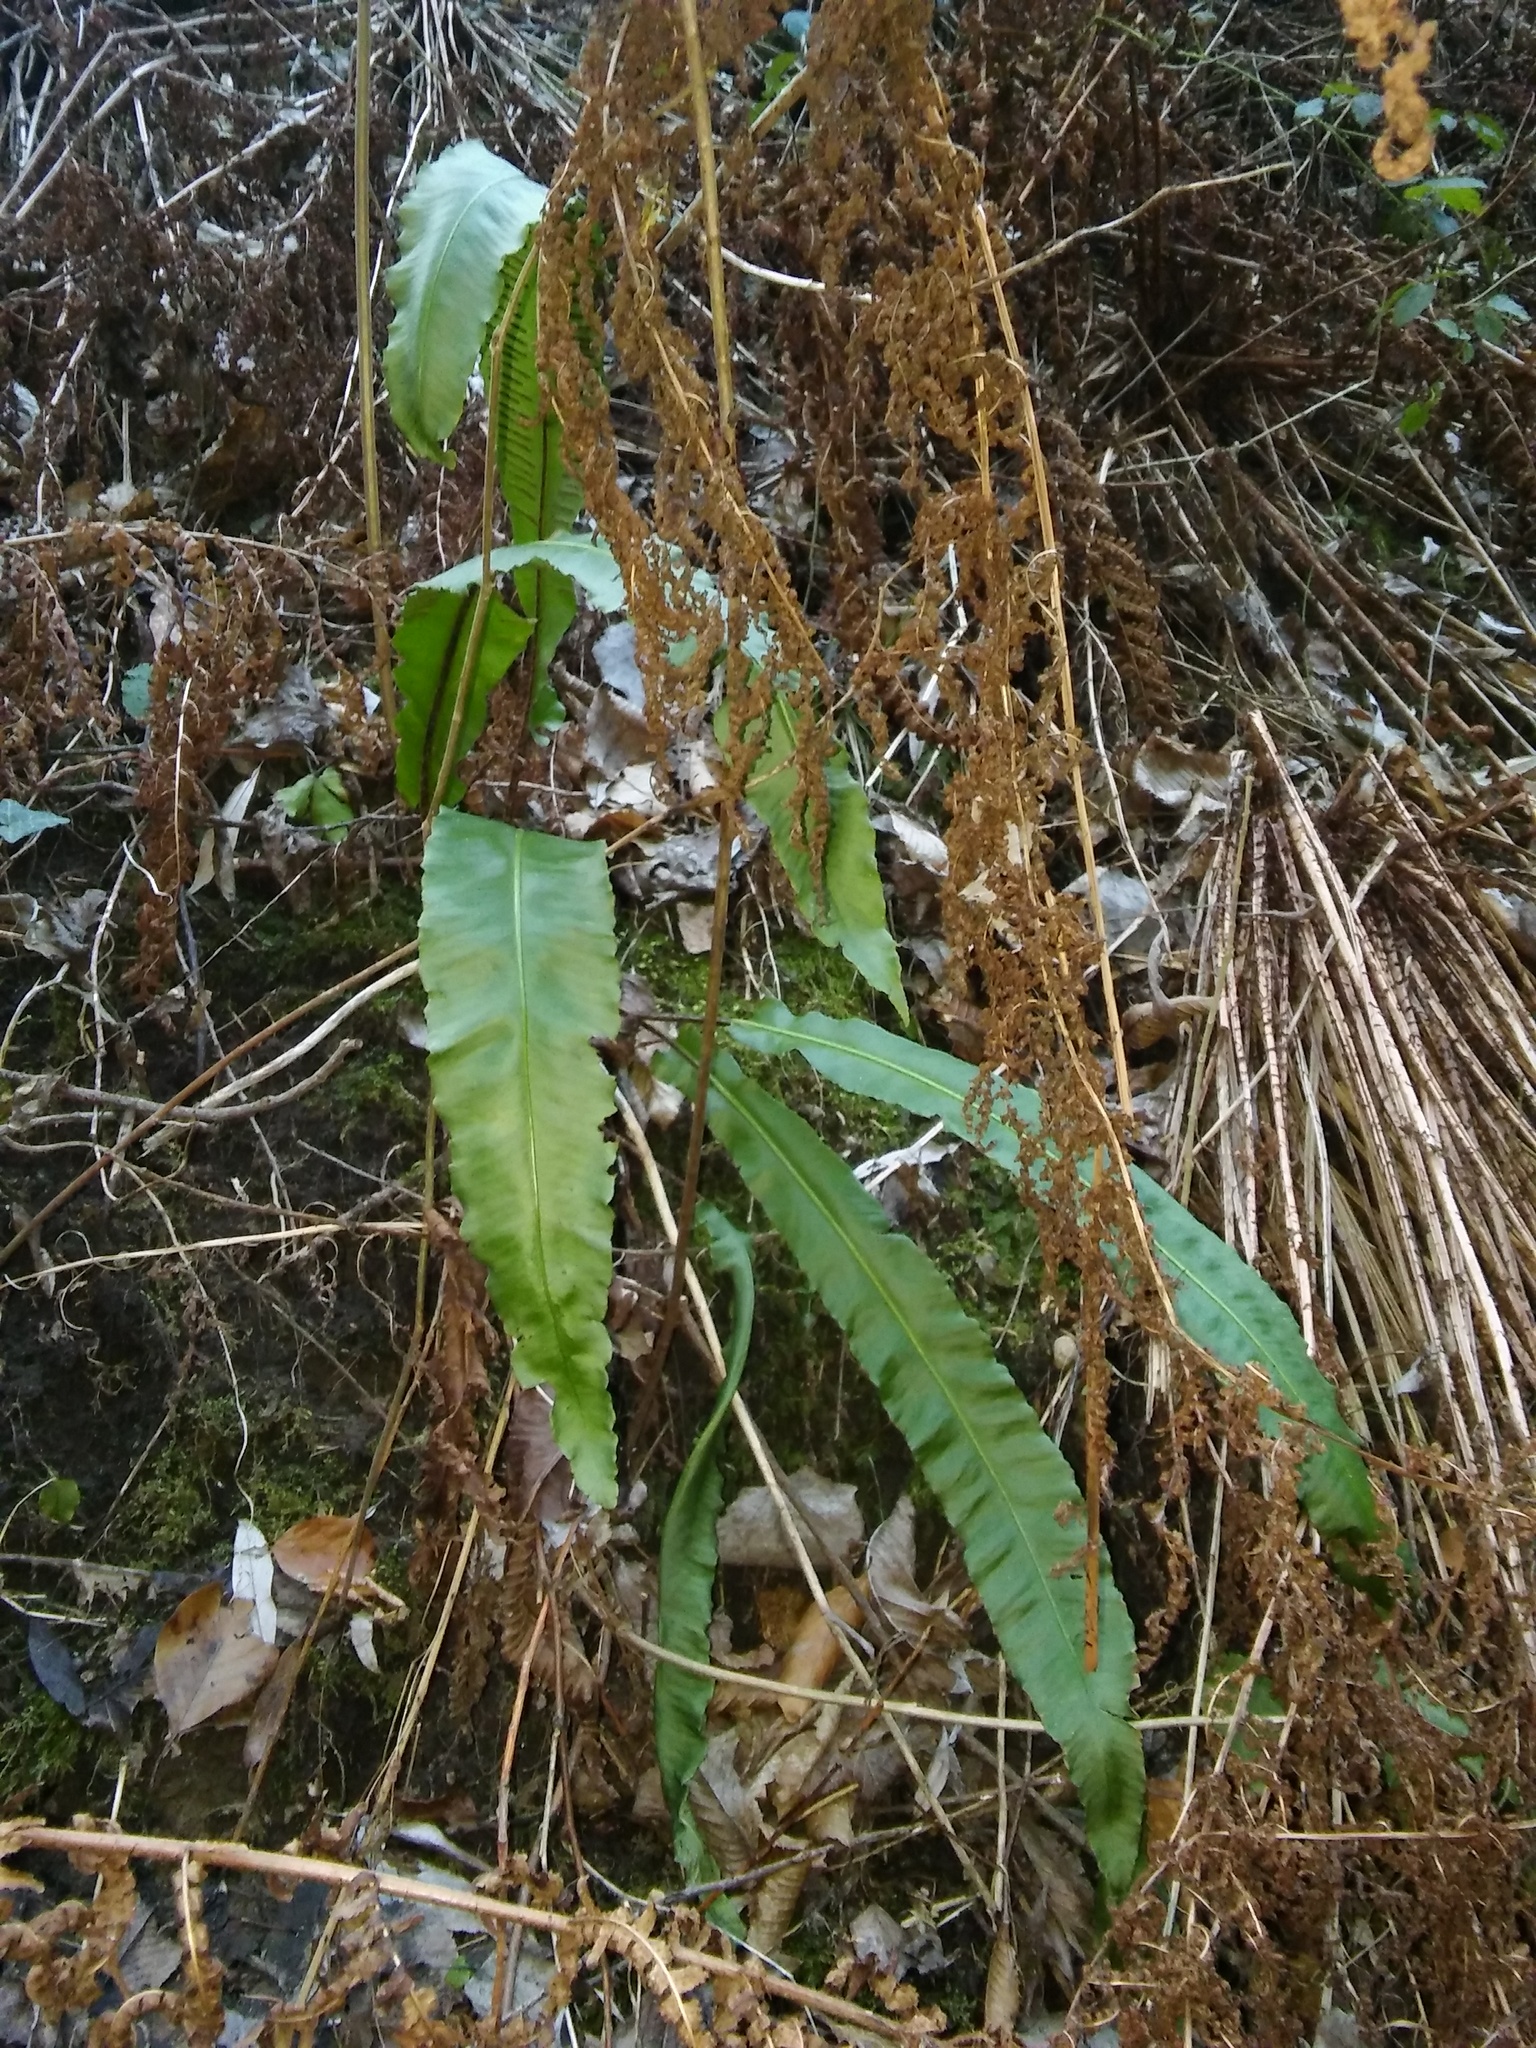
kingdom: Plantae
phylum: Tracheophyta
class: Polypodiopsida
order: Polypodiales
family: Aspleniaceae
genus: Asplenium
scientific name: Asplenium scolopendrium
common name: Hart's-tongue fern
